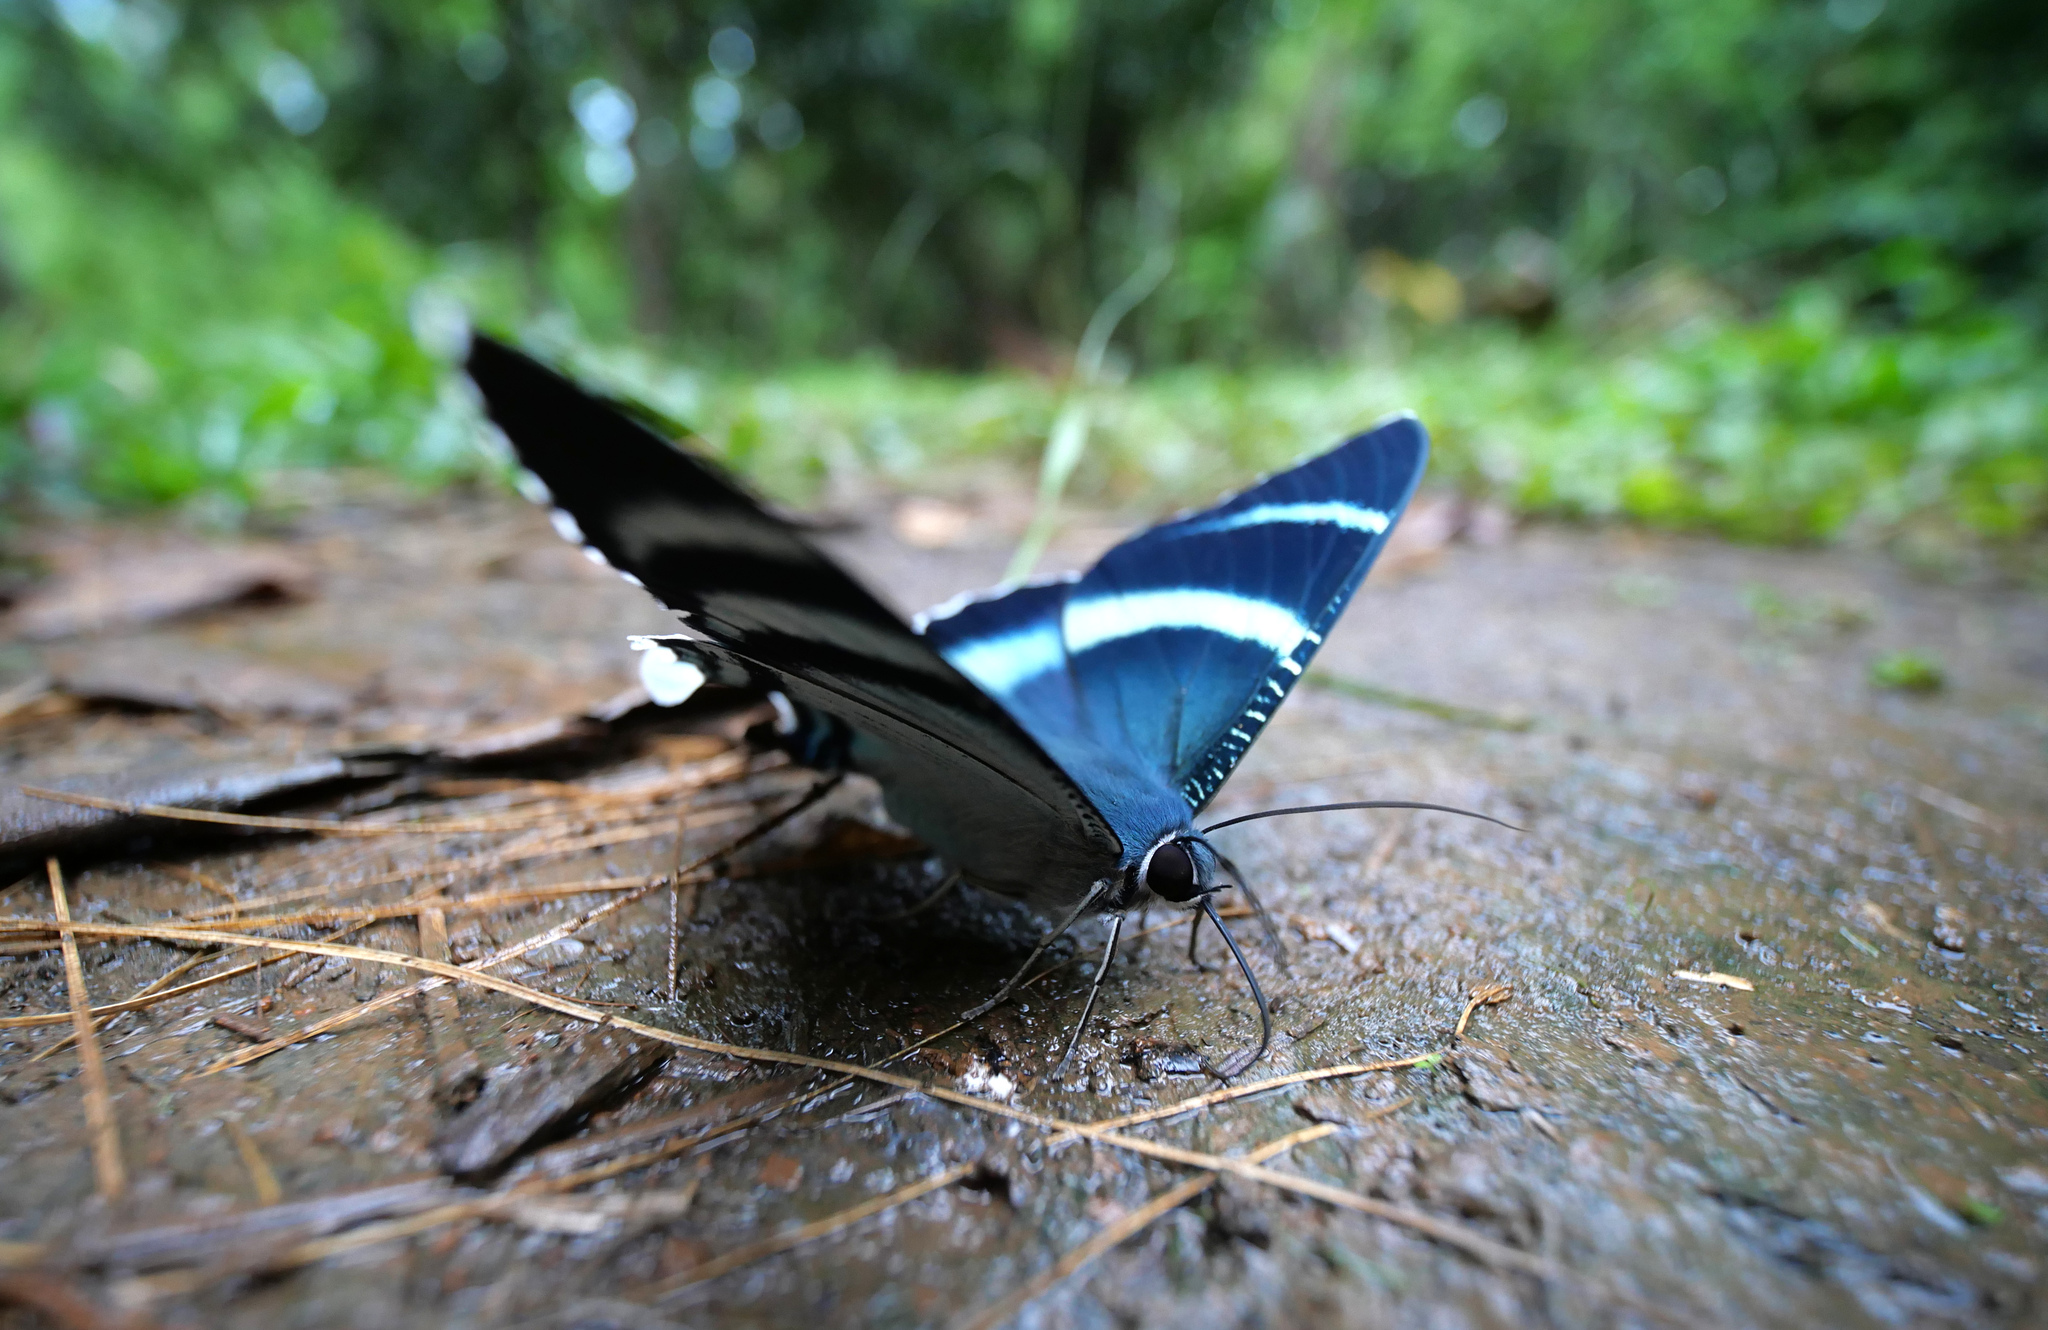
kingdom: Animalia
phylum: Arthropoda
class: Insecta
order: Lepidoptera
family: Uraniidae
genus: Lyssa
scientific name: Lyssa aruus
